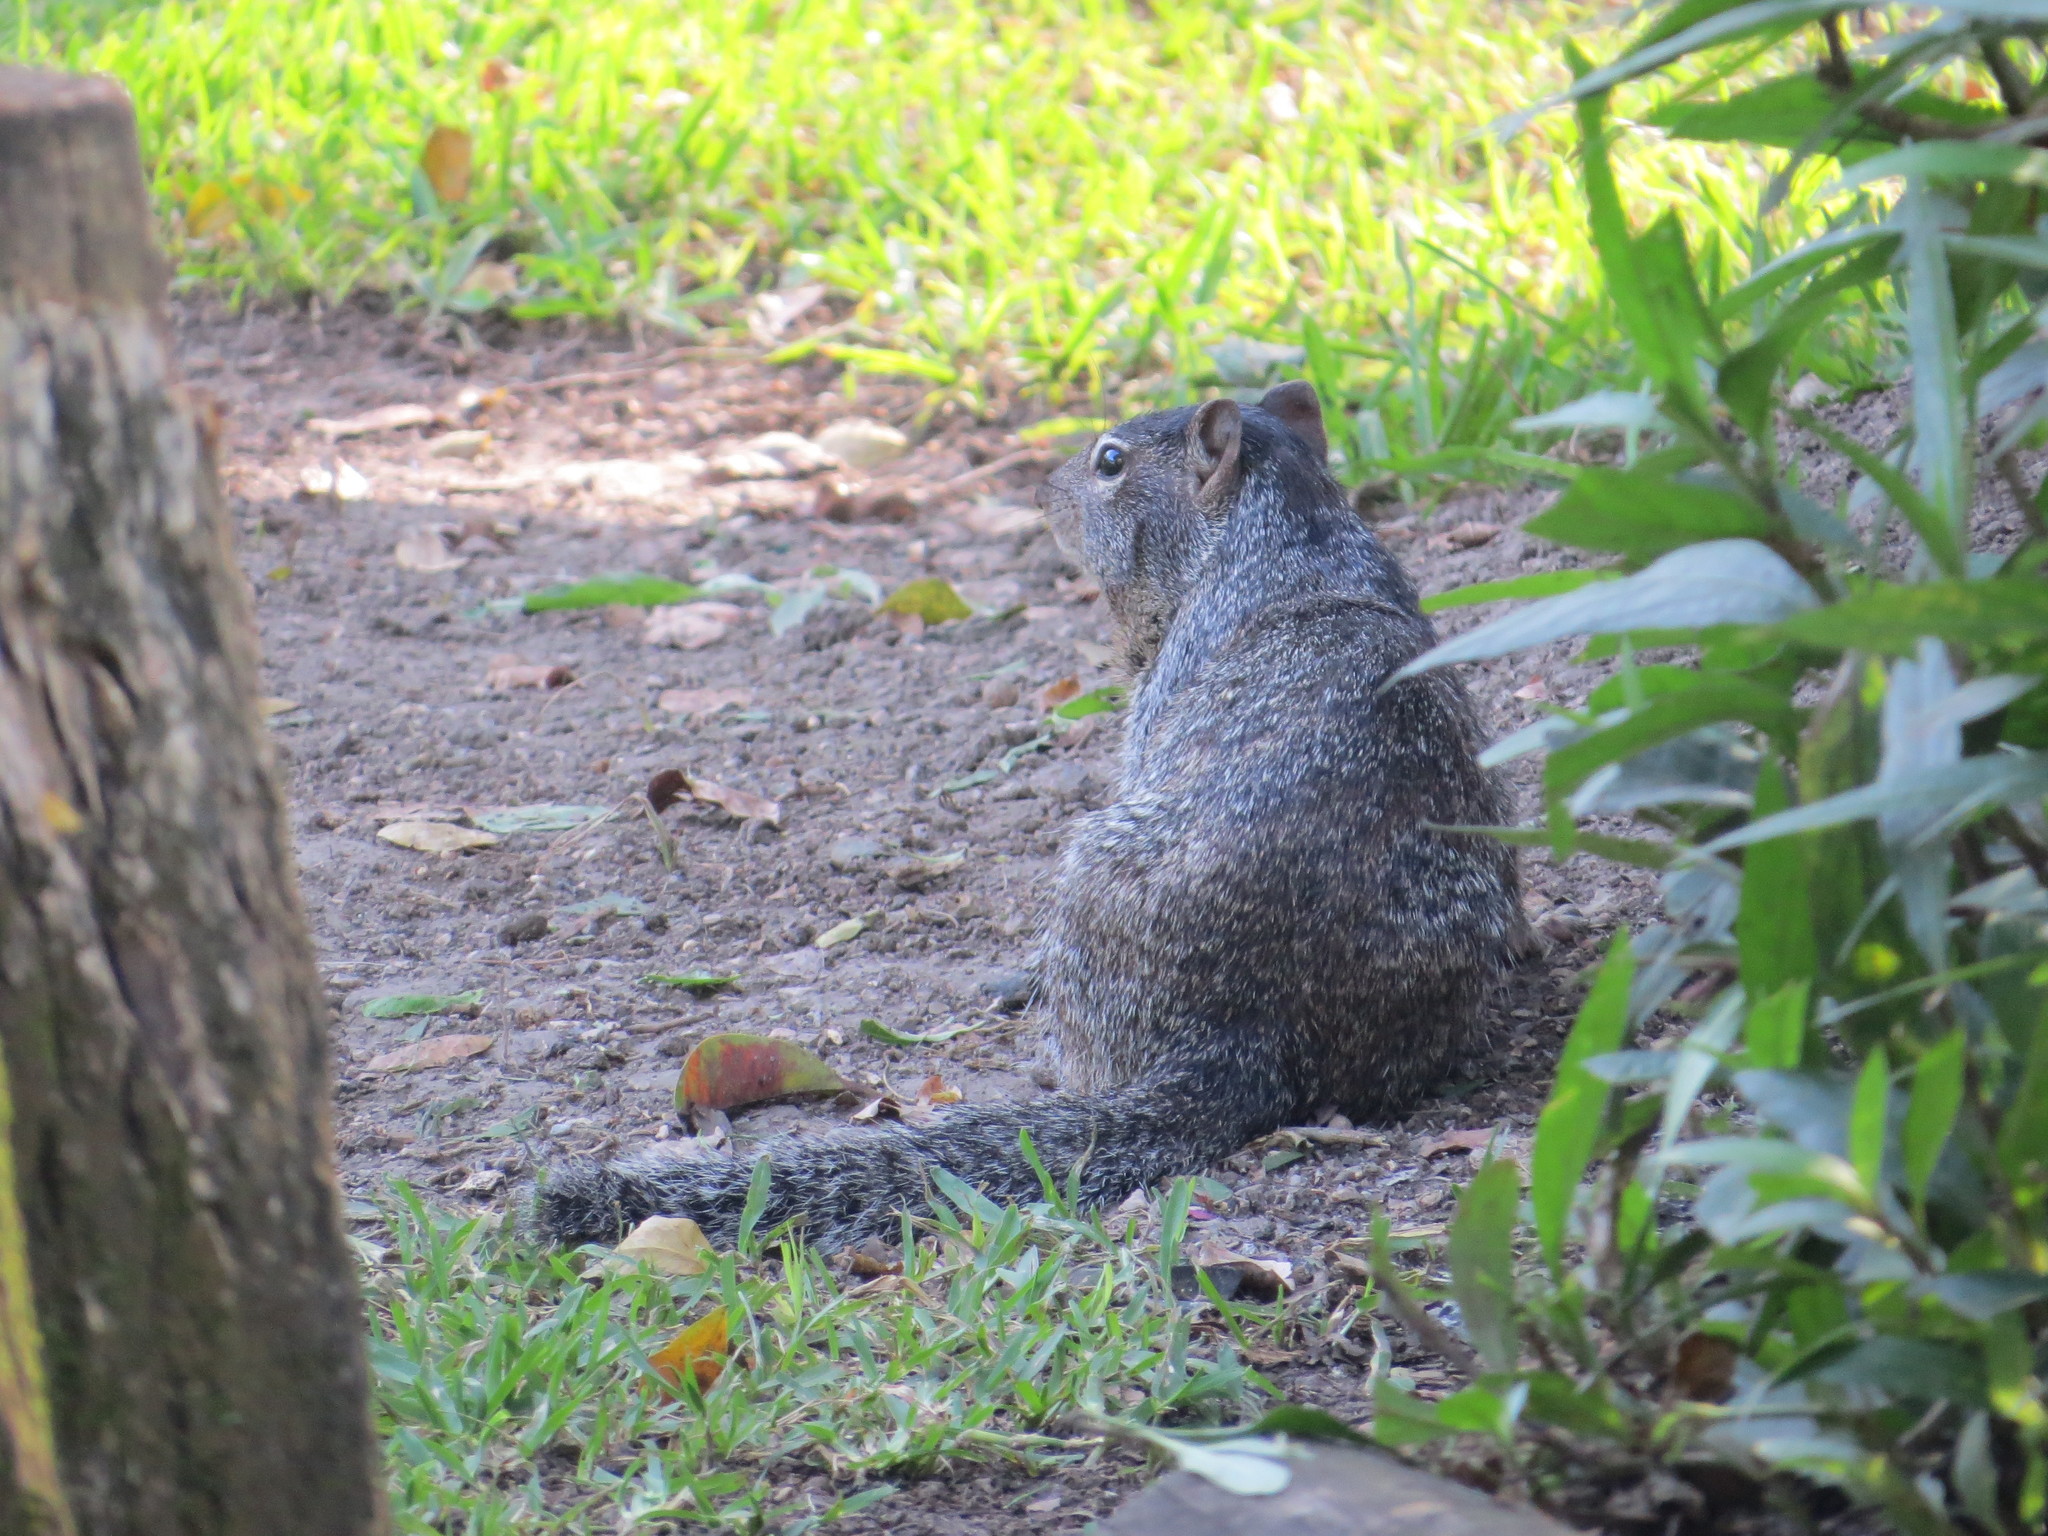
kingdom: Animalia
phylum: Chordata
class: Mammalia
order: Rodentia
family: Sciuridae
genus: Otospermophilus
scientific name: Otospermophilus variegatus
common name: Rock squirrel
